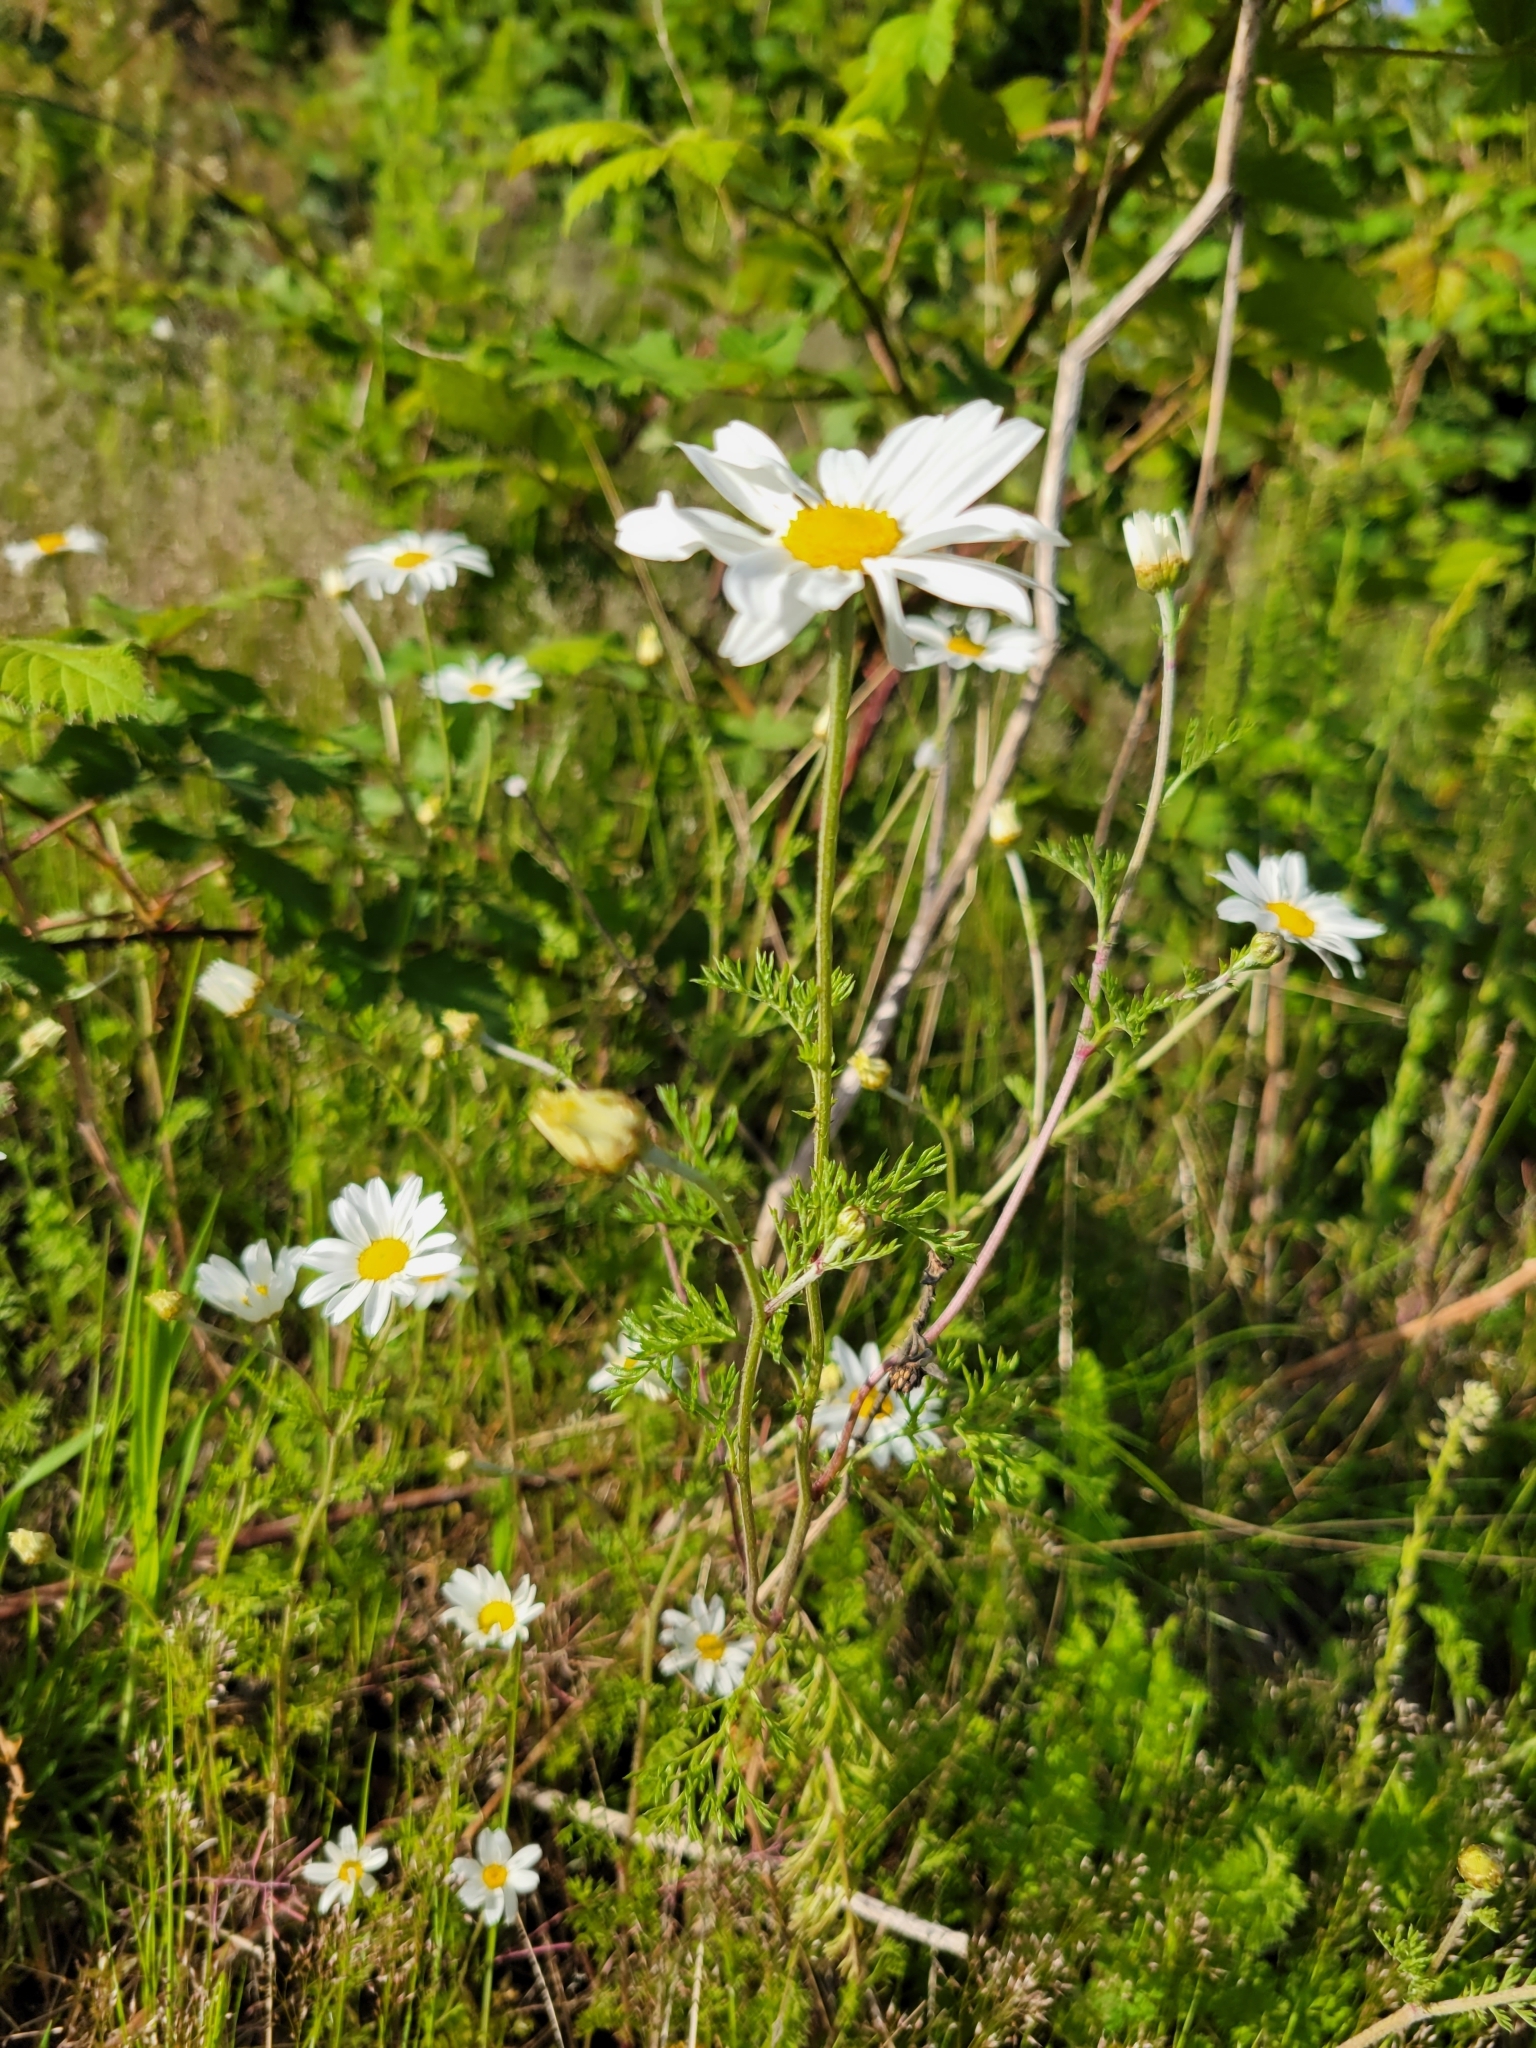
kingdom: Plantae
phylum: Tracheophyta
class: Magnoliopsida
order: Asterales
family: Asteraceae
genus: Tripleurospermum
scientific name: Tripleurospermum inodorum
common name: Scentless mayweed
